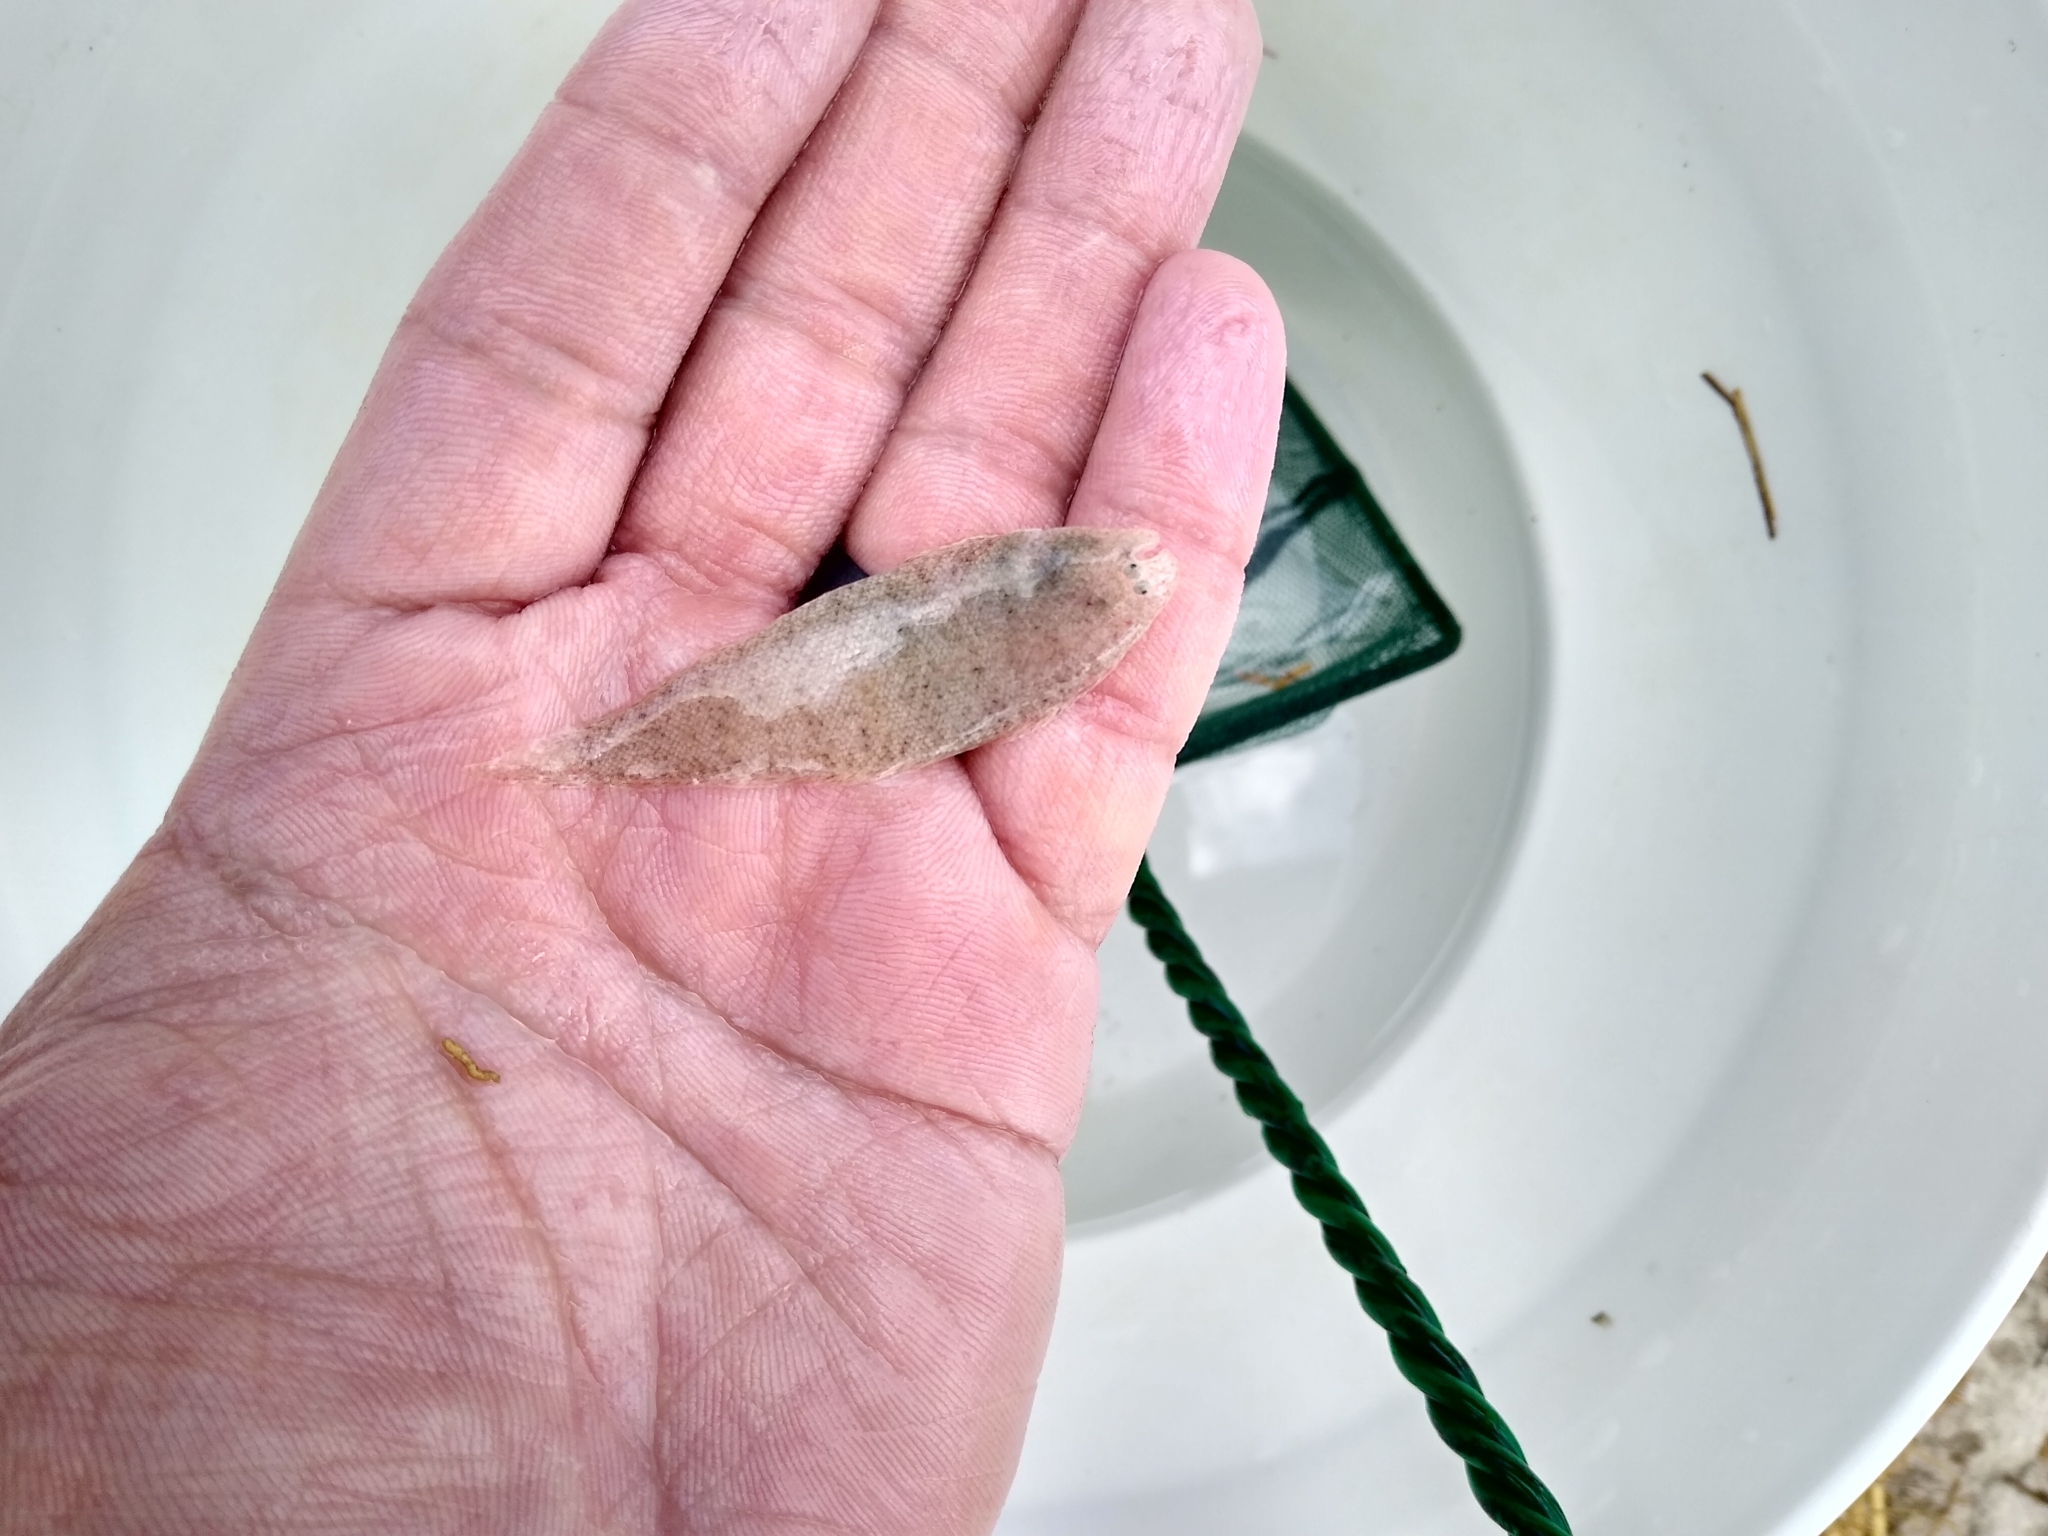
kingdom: Animalia
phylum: Chordata
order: Pleuronectiformes
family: Cynoglossidae
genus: Symphurus
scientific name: Symphurus plagiusa
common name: Blackcheek tonguefish
